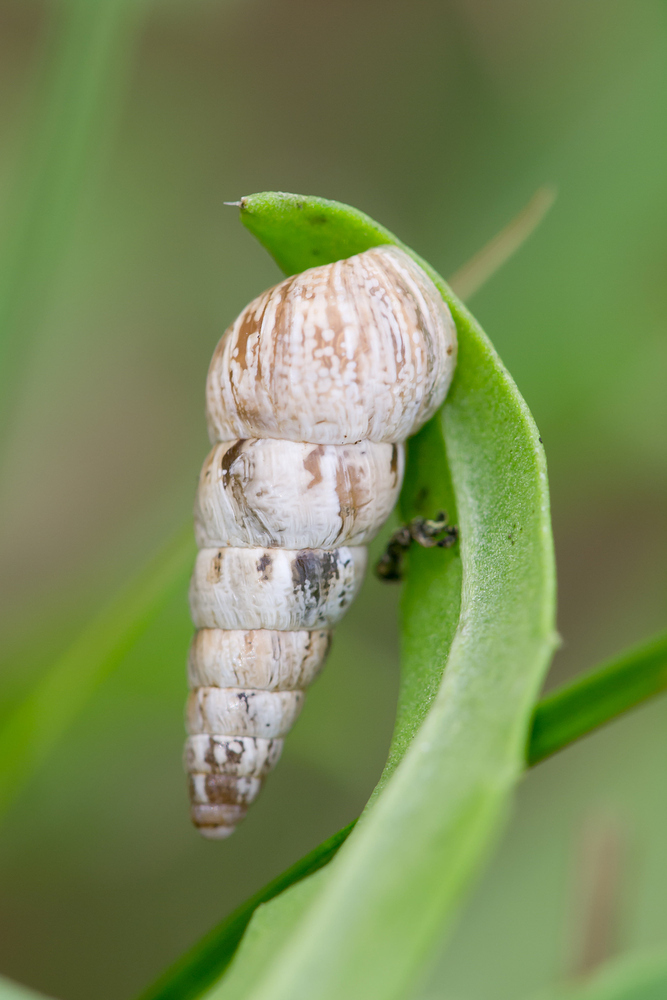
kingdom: Animalia
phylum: Mollusca
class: Gastropoda
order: Stylommatophora
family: Geomitridae
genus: Cochlicella
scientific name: Cochlicella acuta
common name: Pointed snail
